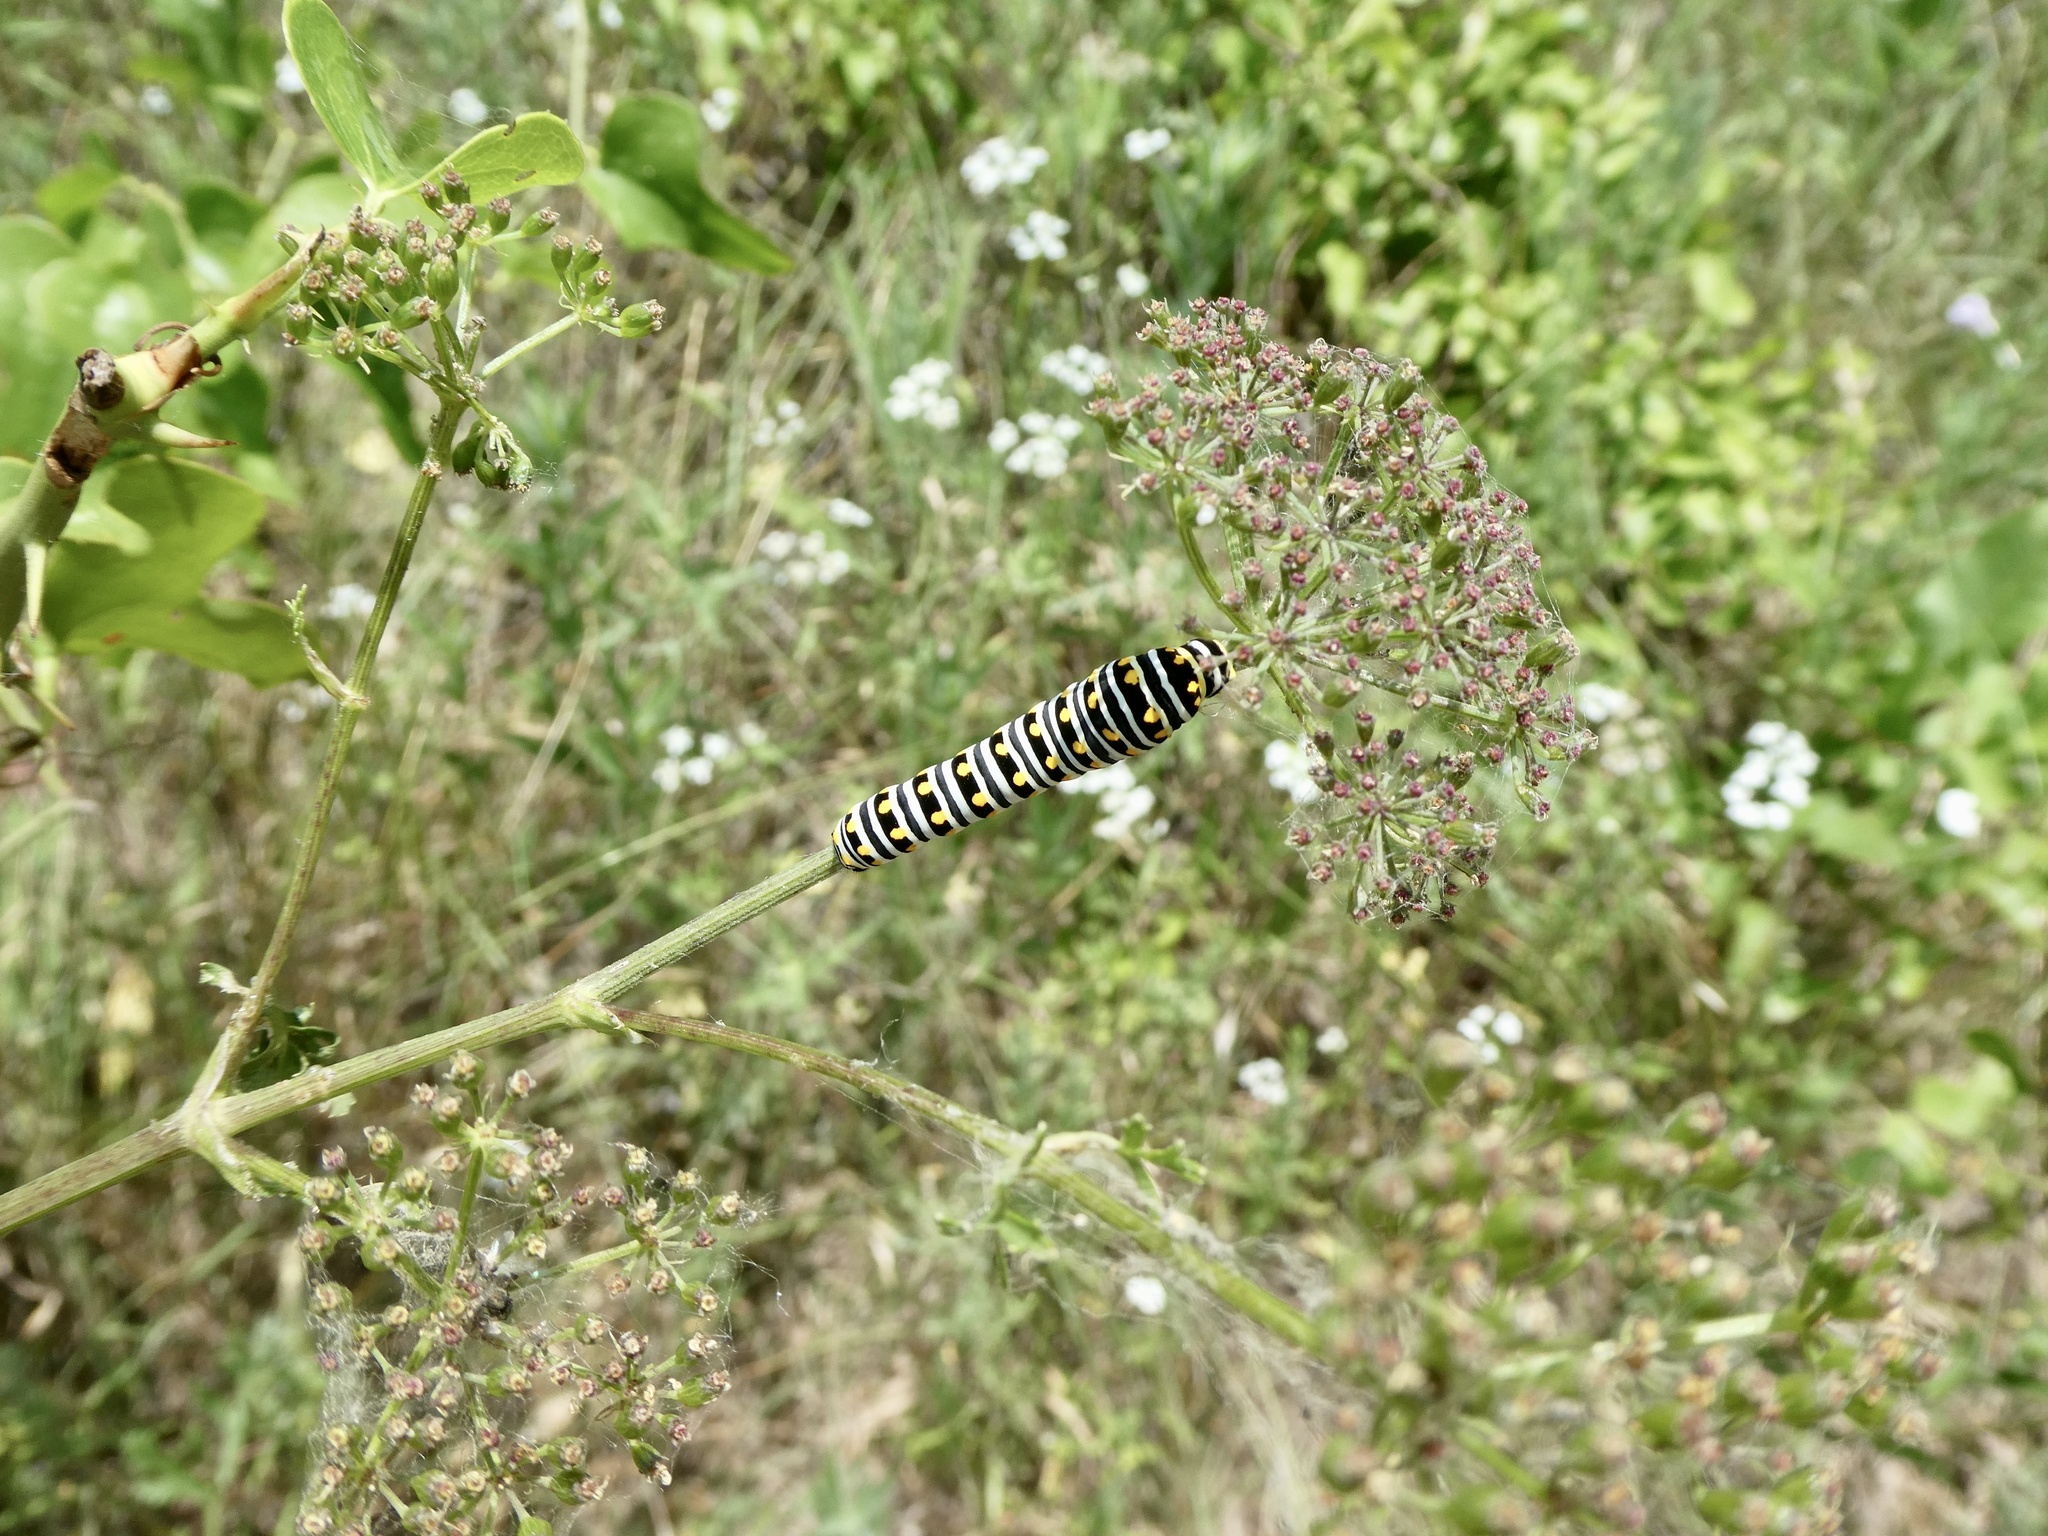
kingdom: Animalia
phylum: Arthropoda
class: Insecta
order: Lepidoptera
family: Papilionidae
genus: Papilio
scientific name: Papilio polyxenes
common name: Black swallowtail
